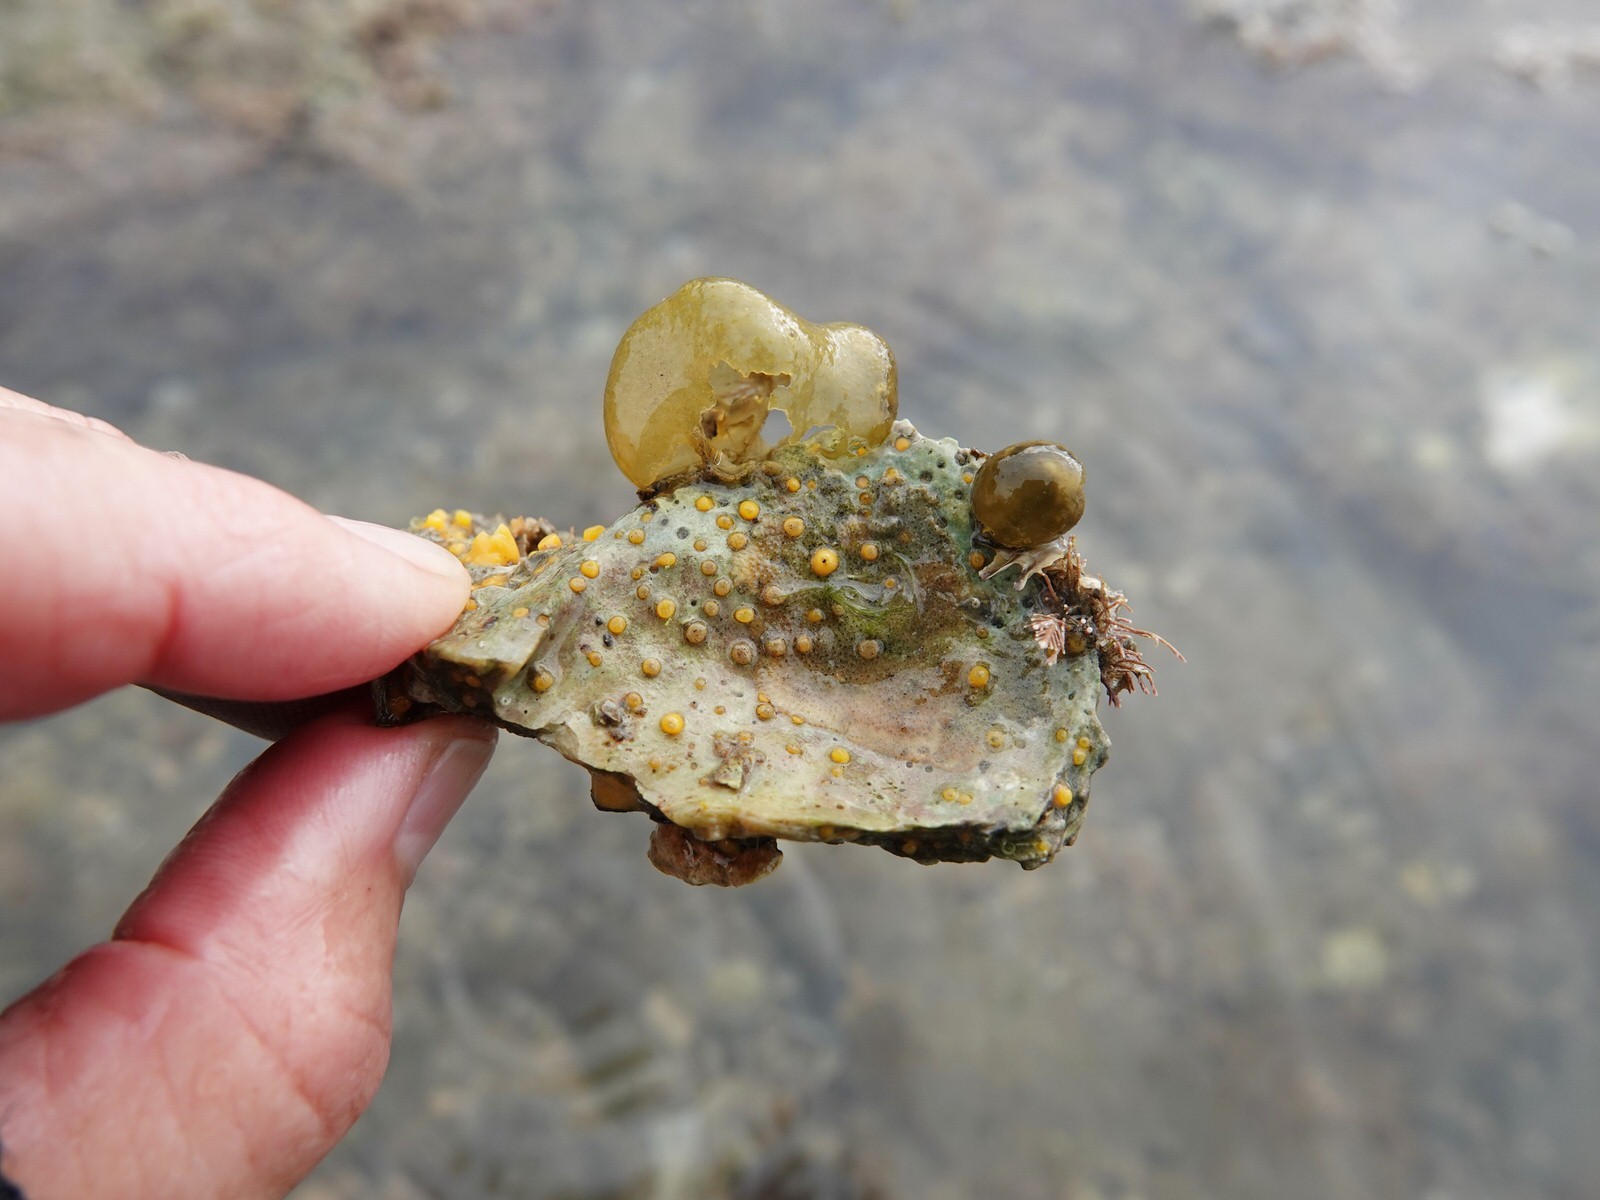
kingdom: Animalia
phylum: Porifera
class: Demospongiae
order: Clionaida
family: Clionaidae
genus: Cliona
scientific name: Cliona celata
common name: Boring sponge
